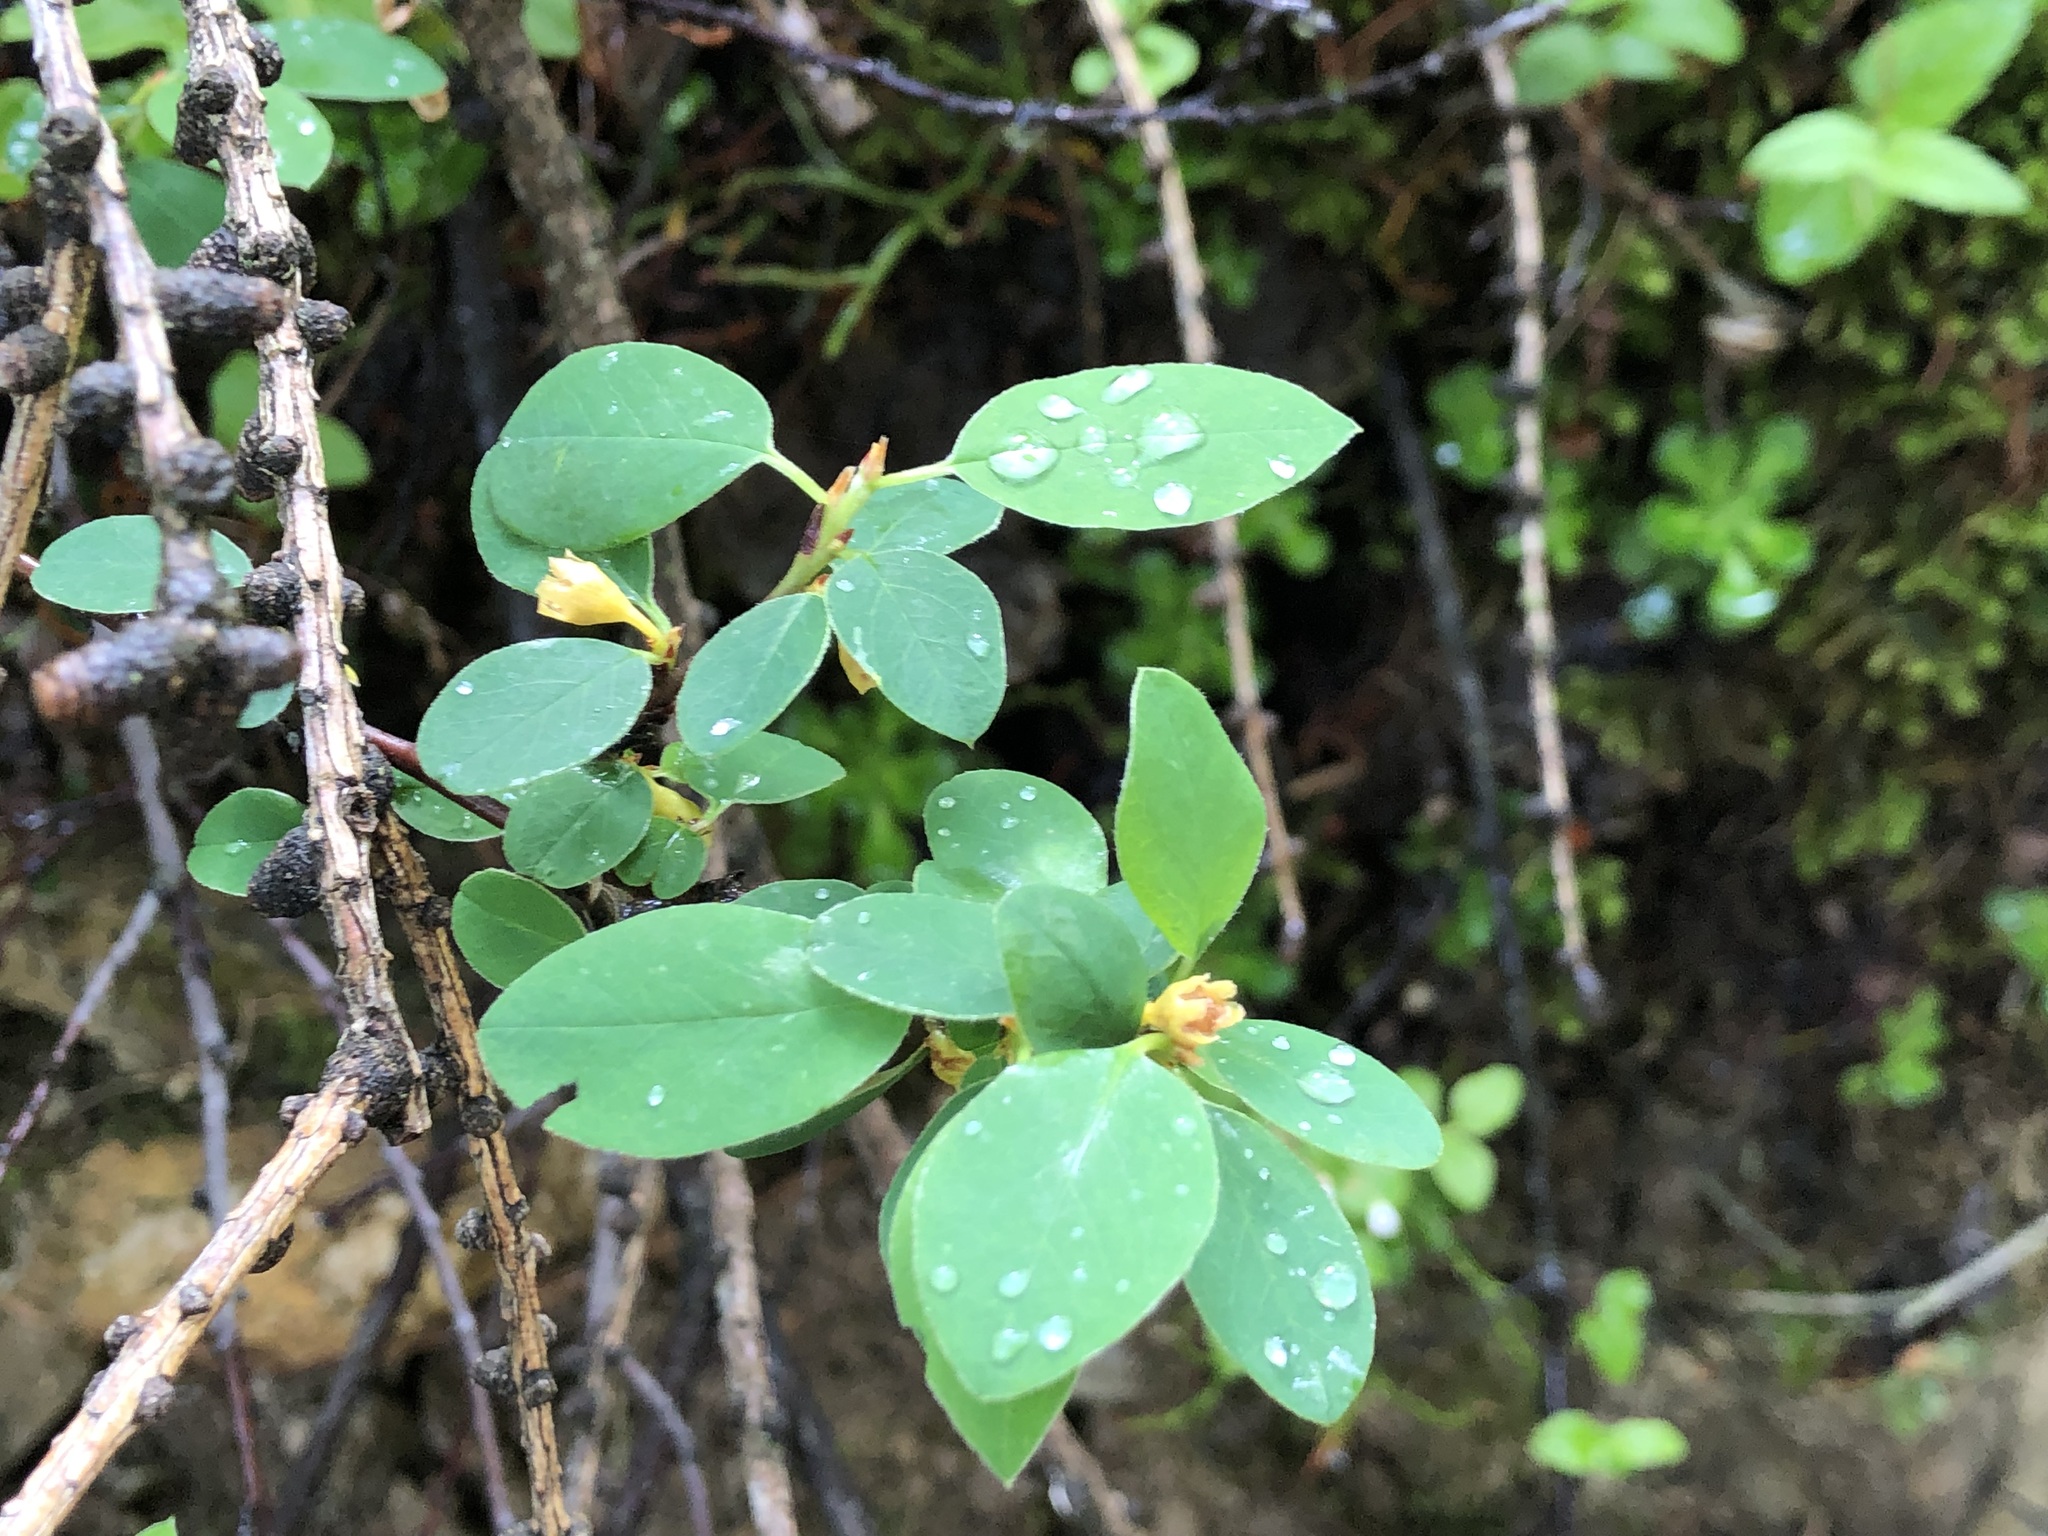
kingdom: Plantae
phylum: Tracheophyta
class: Magnoliopsida
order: Dipsacales
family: Caprifoliaceae
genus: Lonicera
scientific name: Lonicera caerulea
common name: Blue honeysuckle
